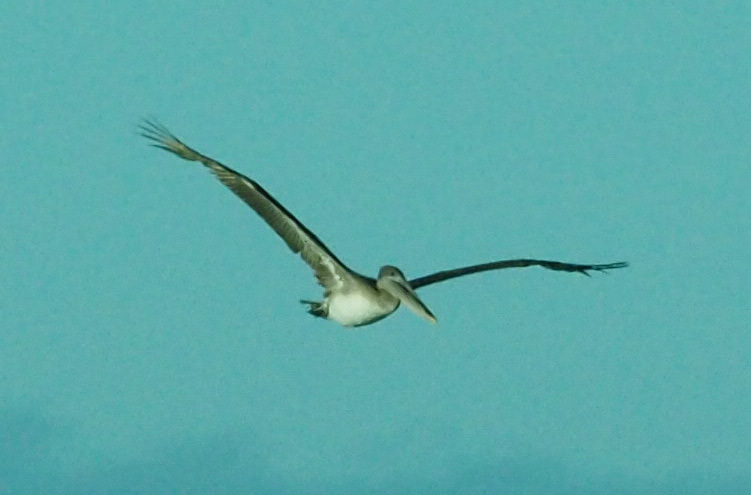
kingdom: Animalia
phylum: Chordata
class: Aves
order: Pelecaniformes
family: Pelecanidae
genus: Pelecanus
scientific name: Pelecanus occidentalis
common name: Brown pelican
